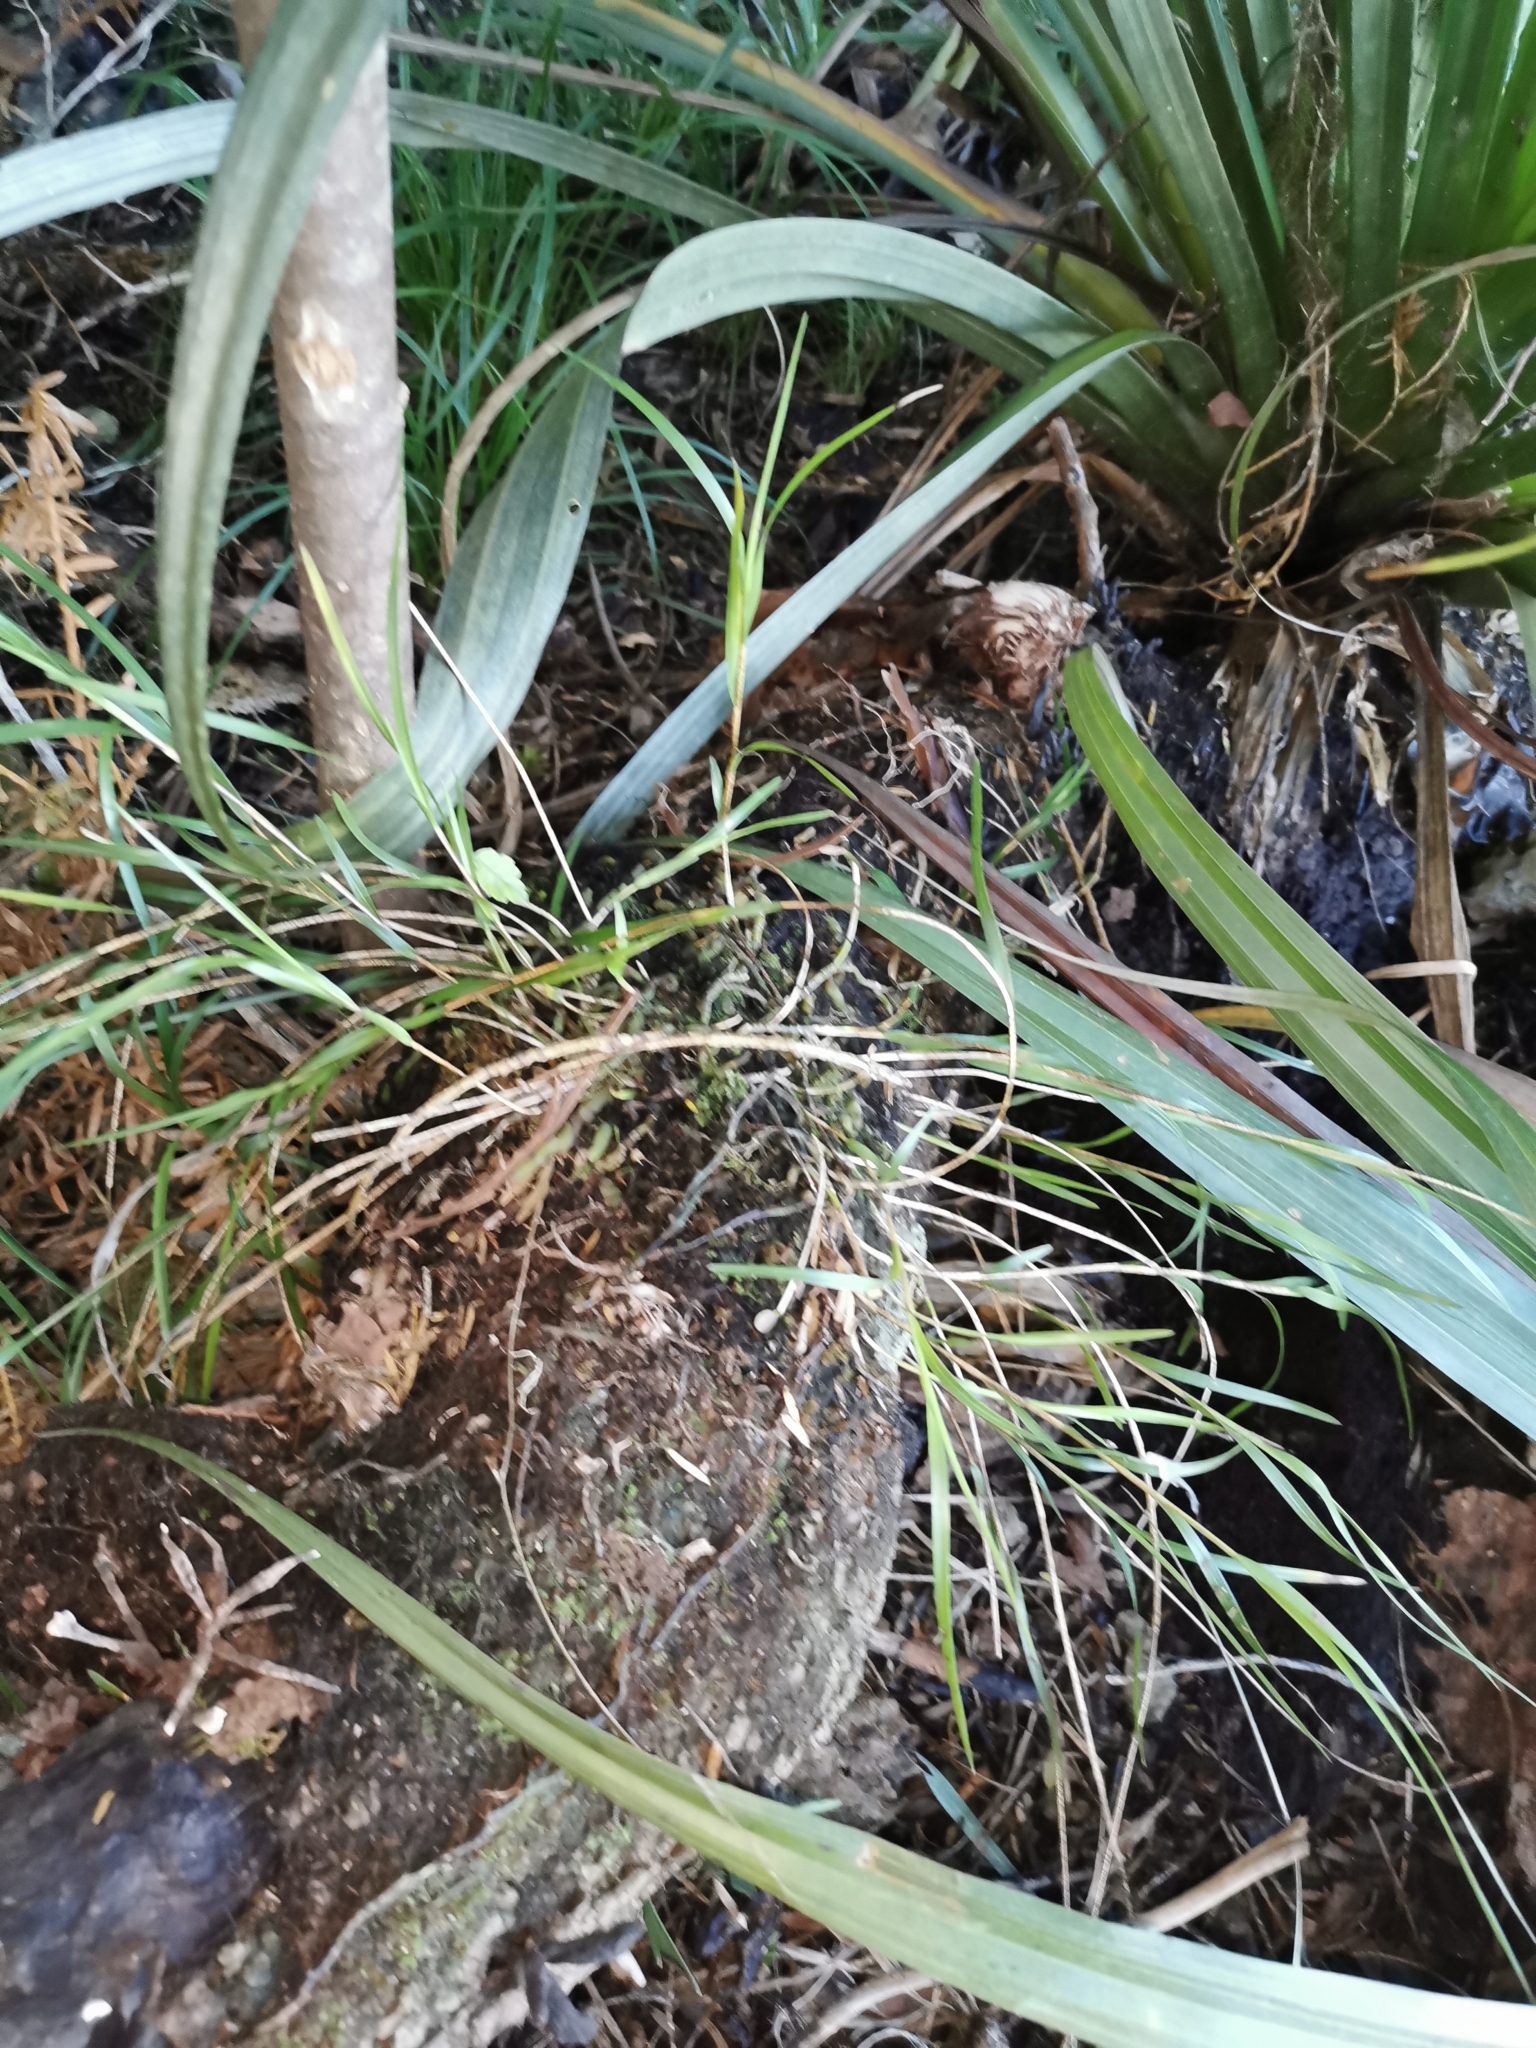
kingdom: Plantae
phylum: Tracheophyta
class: Liliopsida
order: Asparagales
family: Orchidaceae
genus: Earina
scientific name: Earina mucronata
